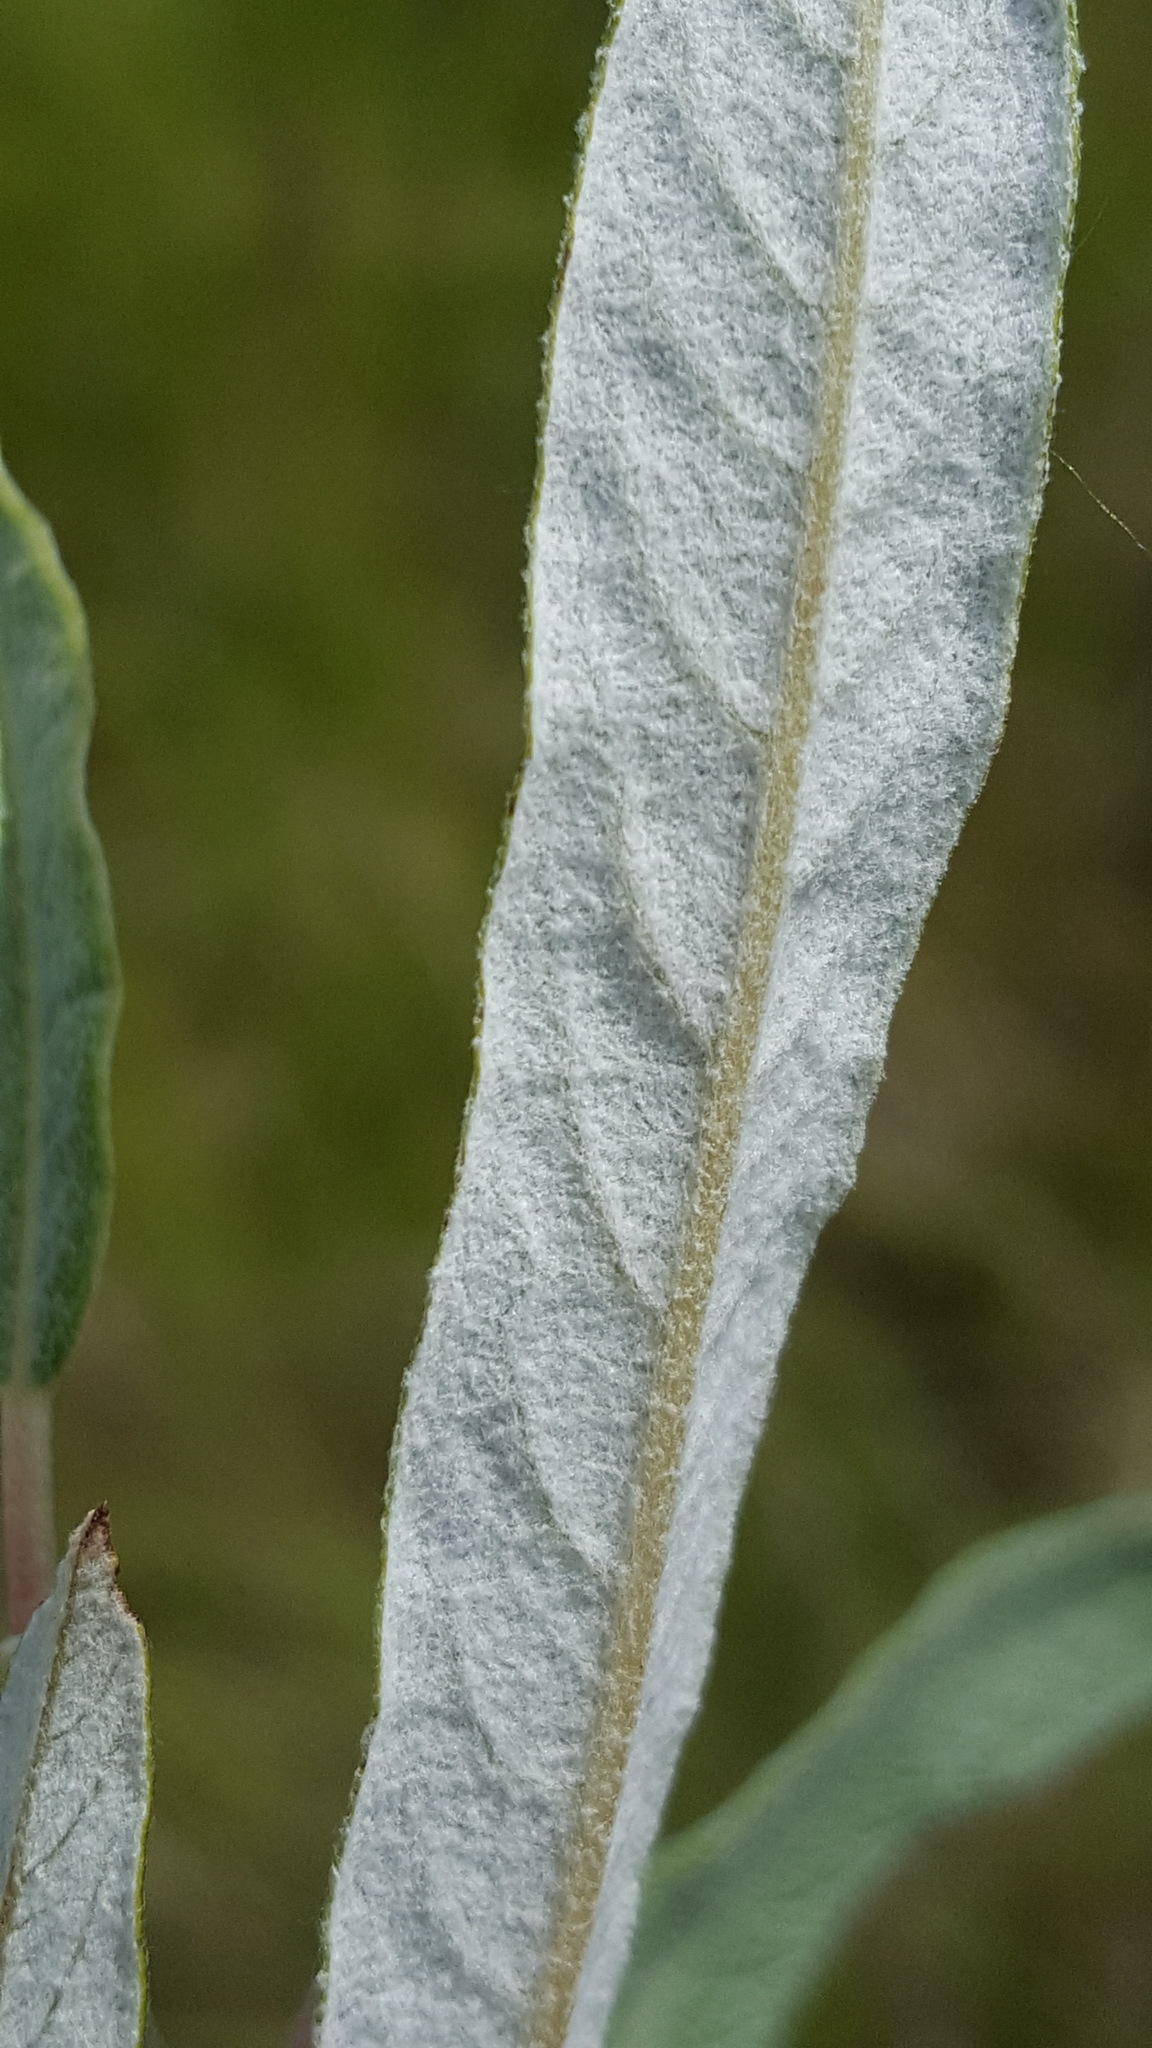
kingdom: Plantae
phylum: Tracheophyta
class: Magnoliopsida
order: Malpighiales
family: Salicaceae
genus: Salix
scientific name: Salix candida
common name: Hoary willow
